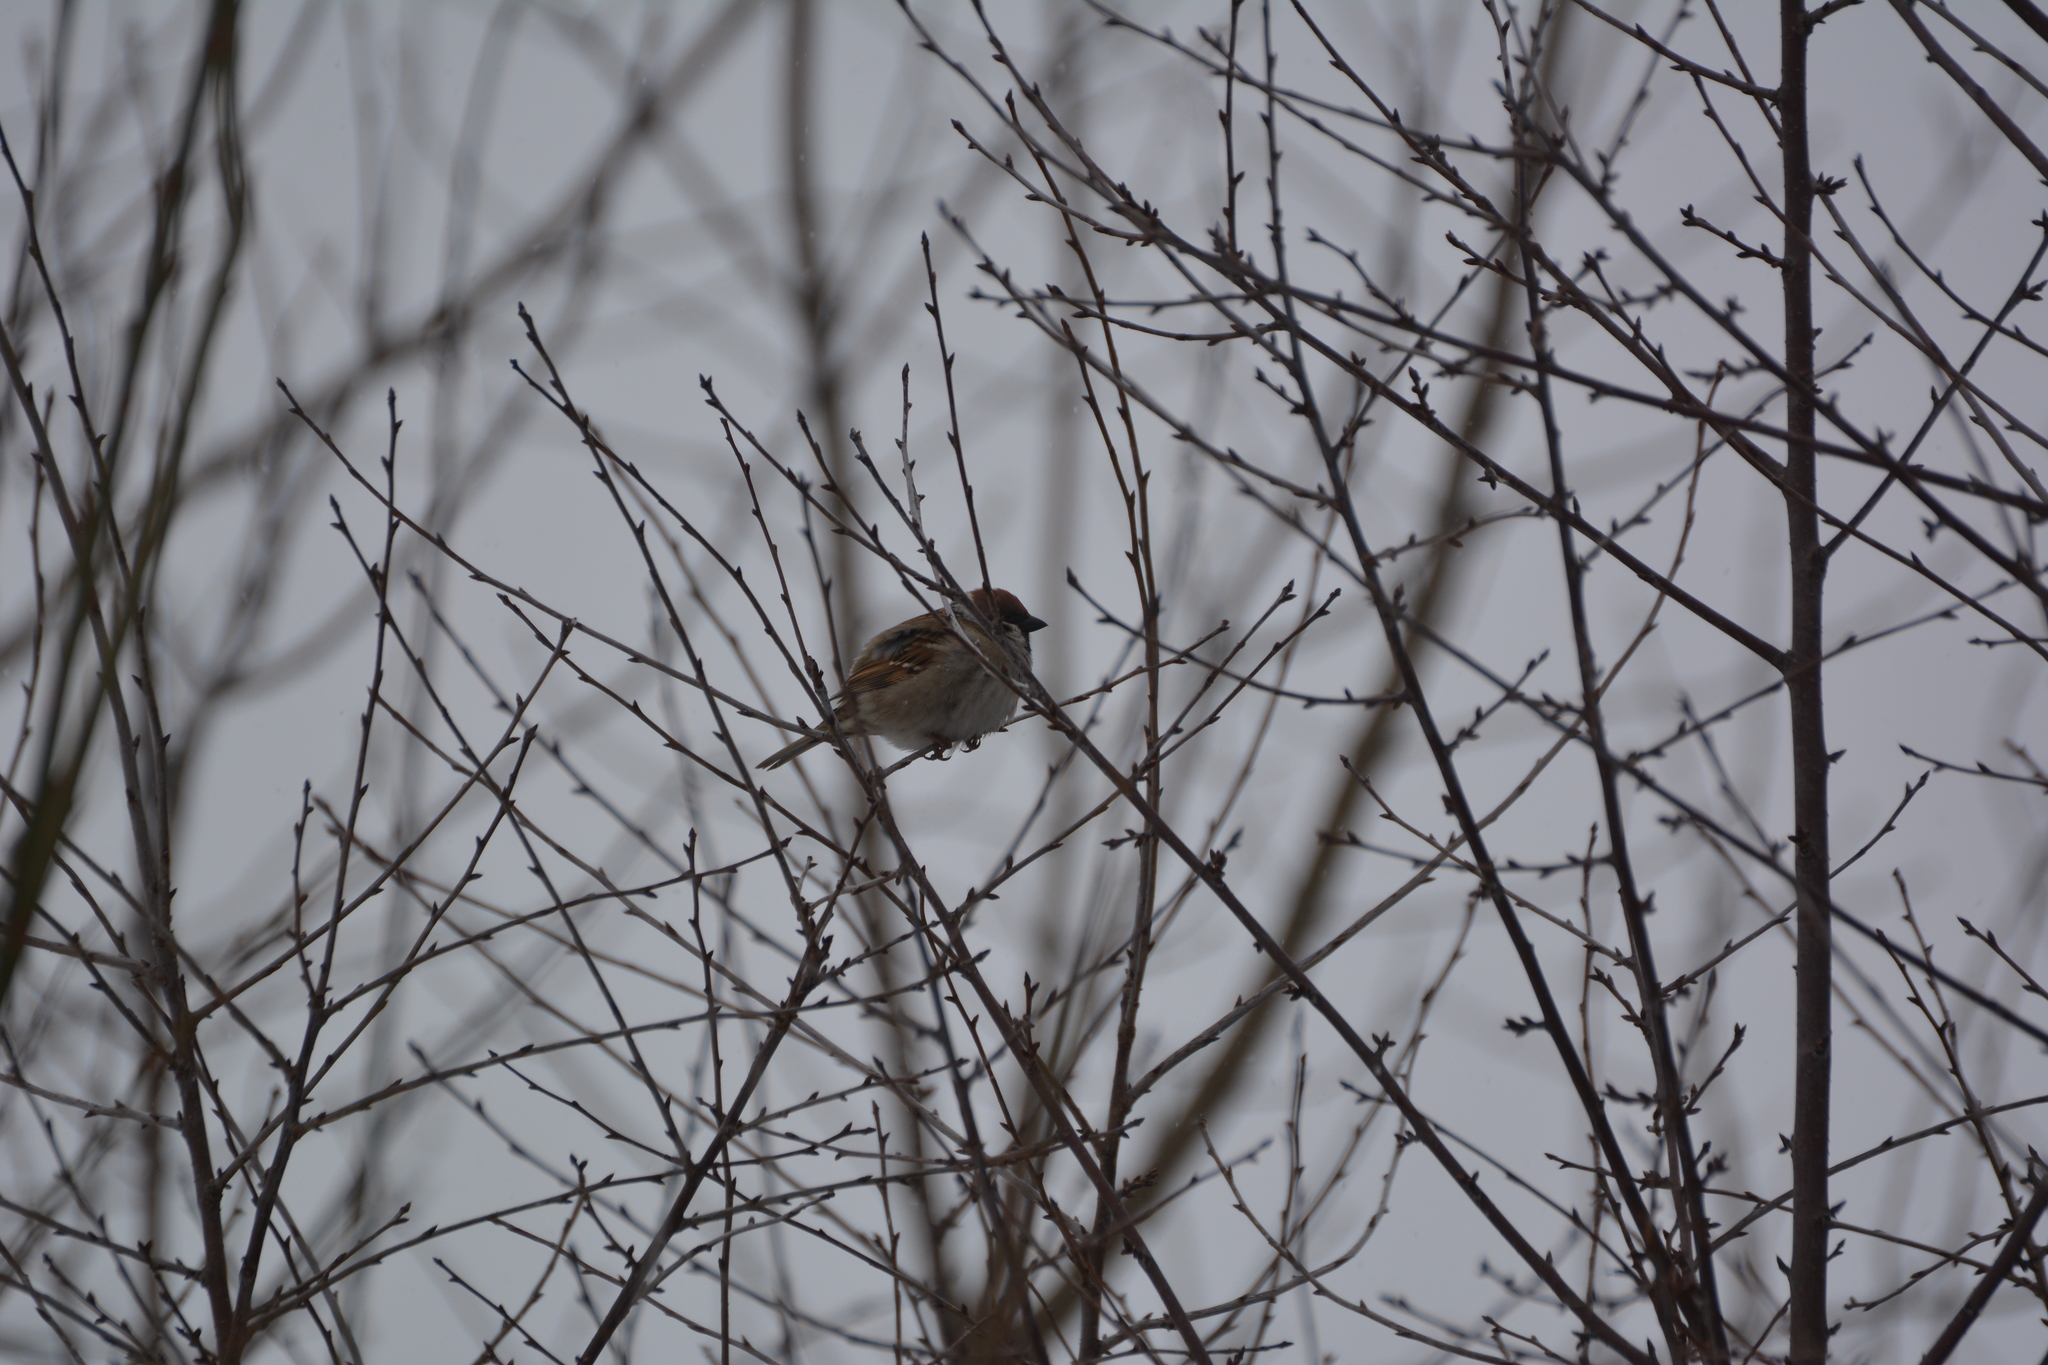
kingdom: Animalia
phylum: Chordata
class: Aves
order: Passeriformes
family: Passeridae
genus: Passer
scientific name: Passer montanus
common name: Eurasian tree sparrow
